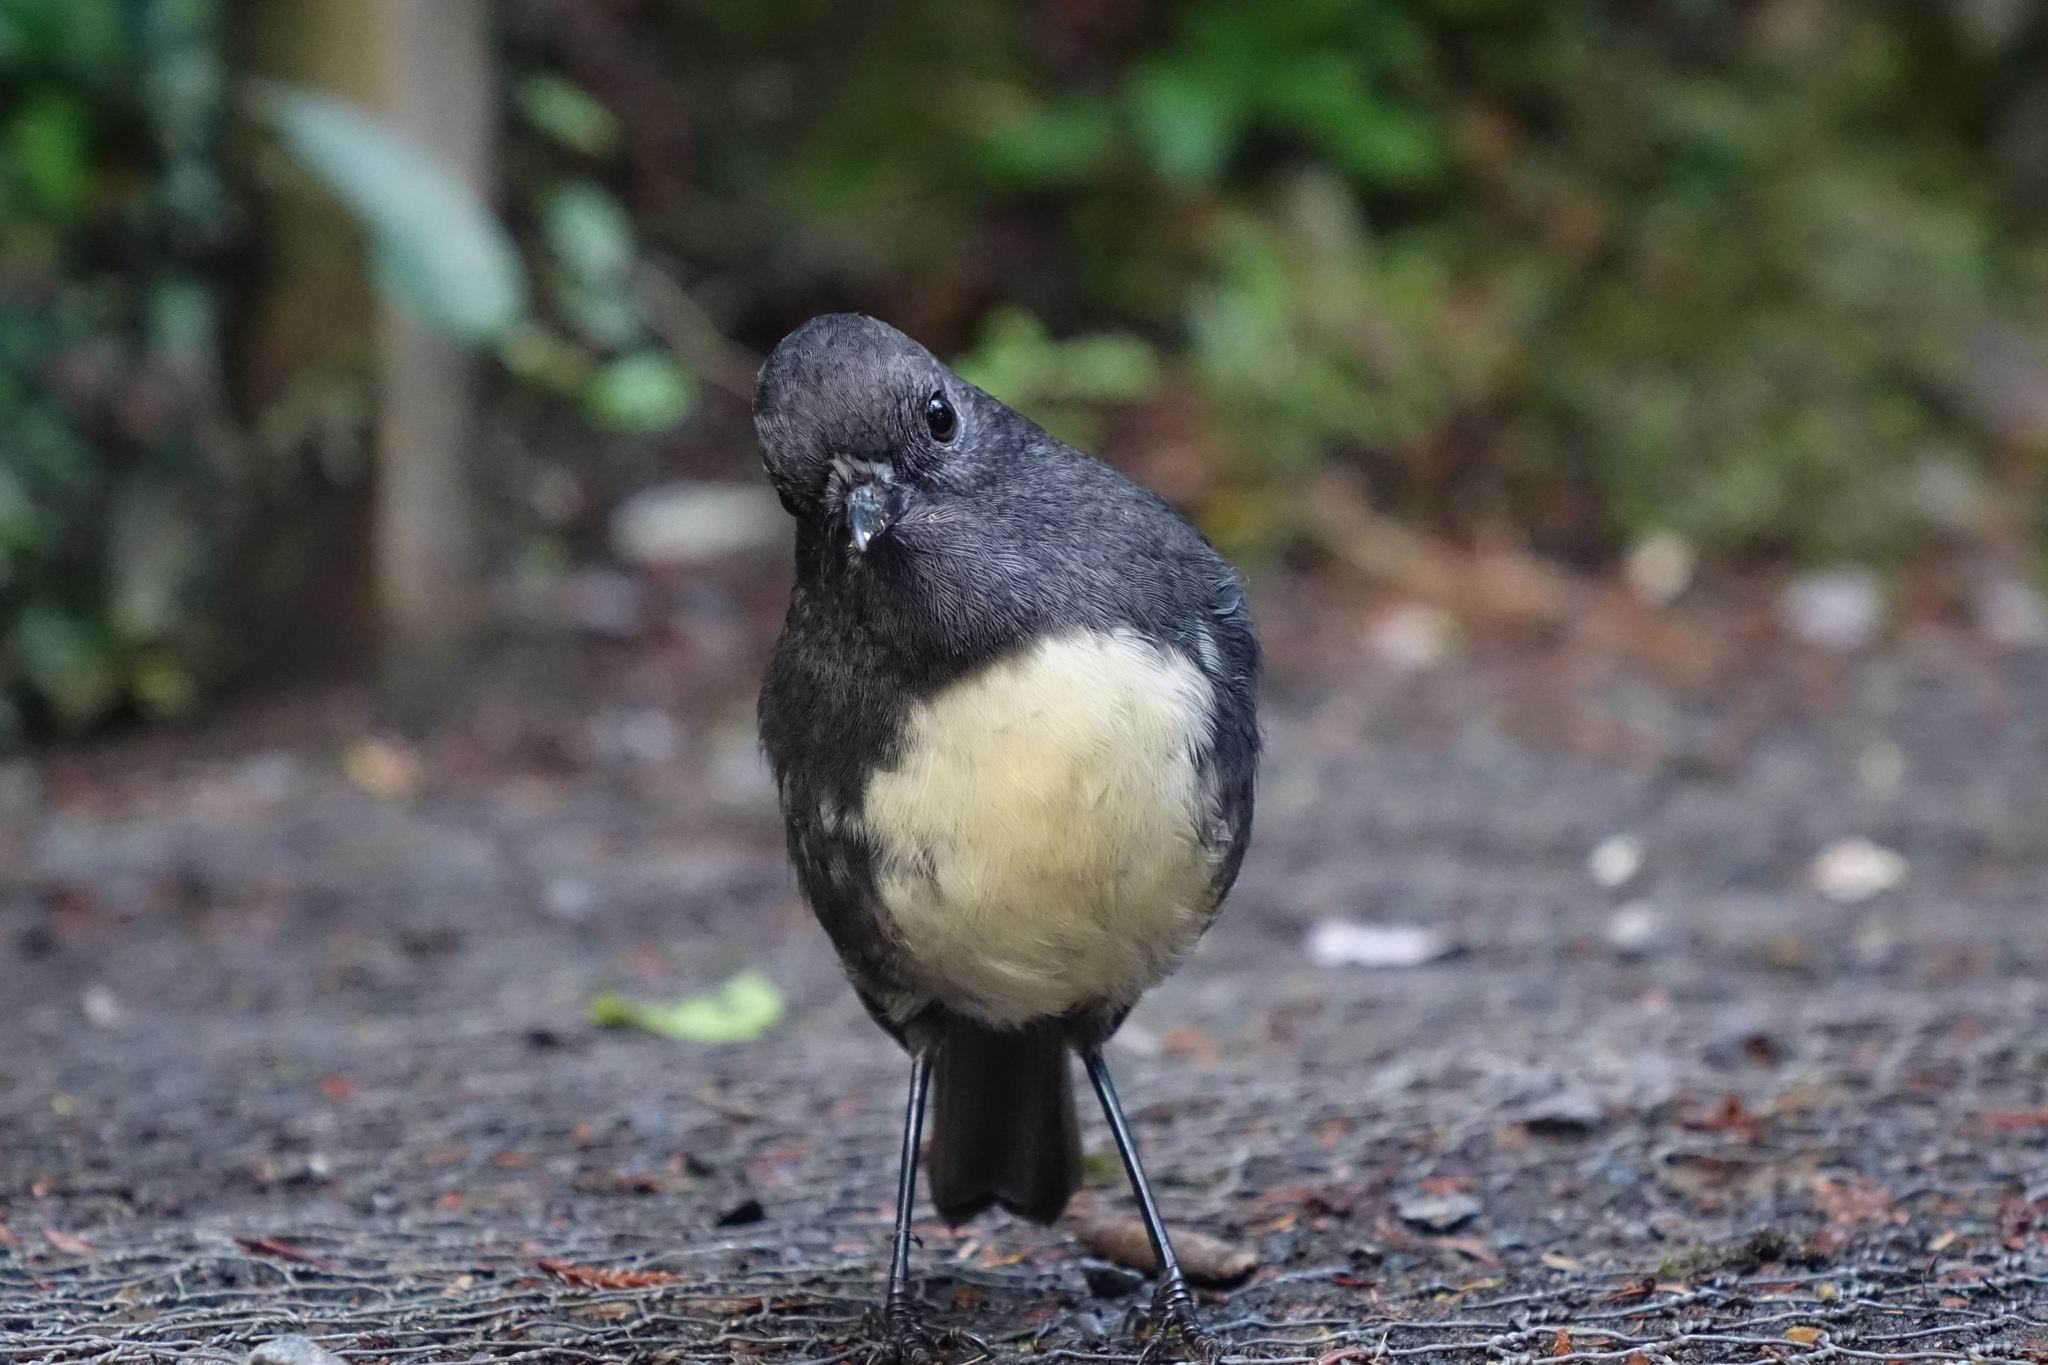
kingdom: Animalia
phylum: Chordata
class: Aves
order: Passeriformes
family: Petroicidae
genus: Petroica
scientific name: Petroica australis
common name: New zealand robin
